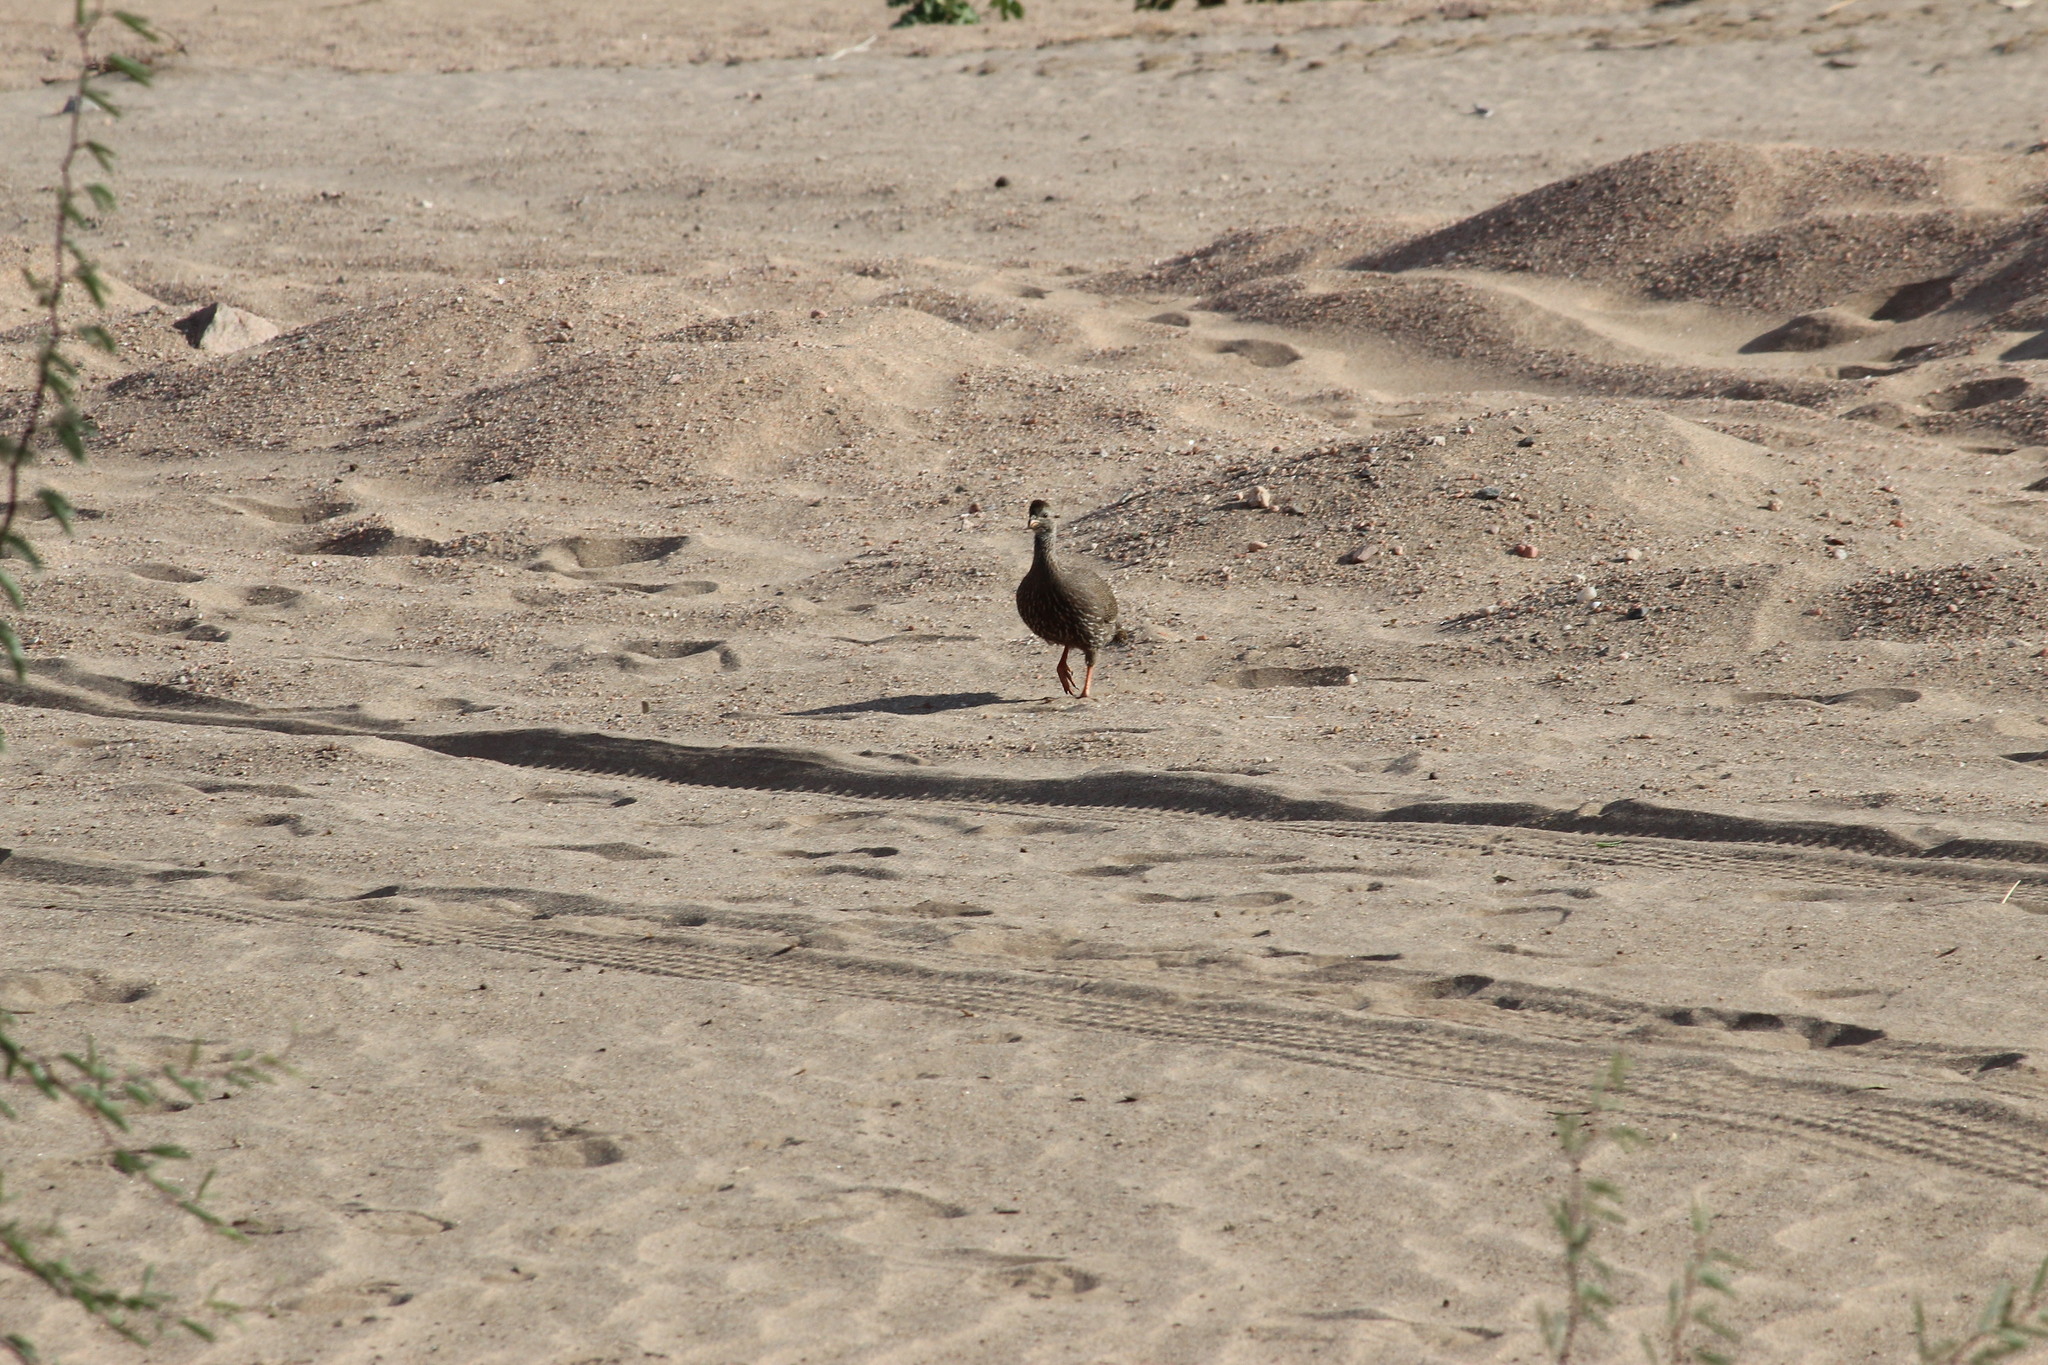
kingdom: Animalia
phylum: Chordata
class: Aves
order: Galliformes
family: Phasianidae
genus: Pternistis
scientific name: Pternistis capensis
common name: Cape spurfowl
